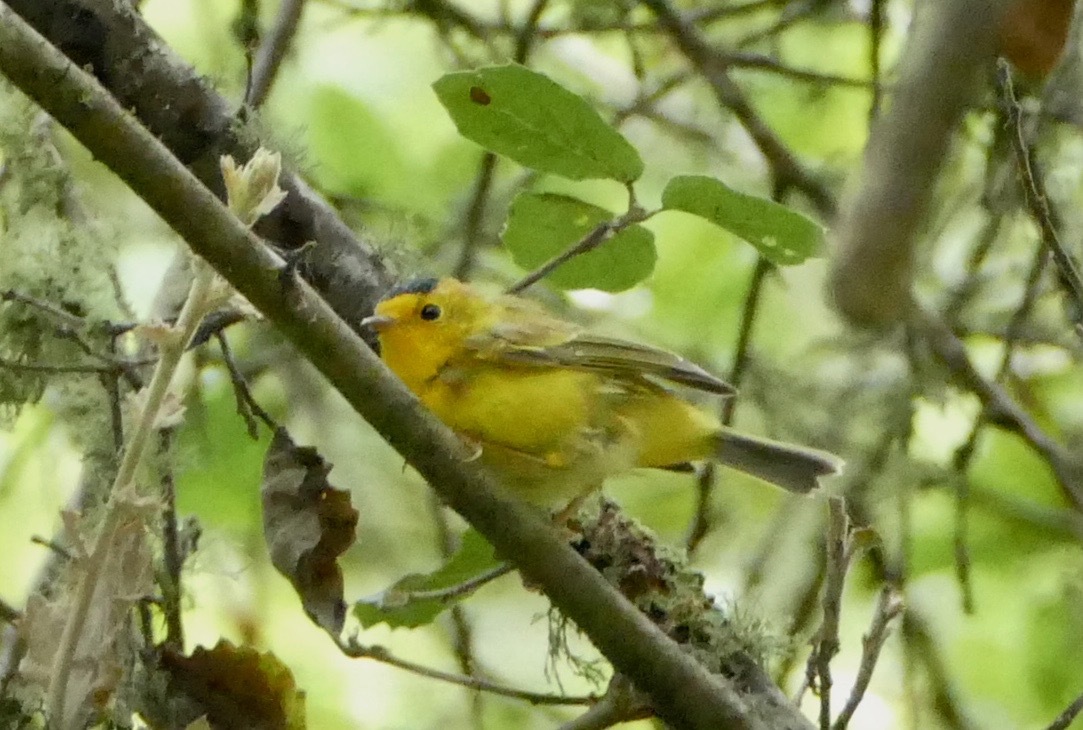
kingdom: Animalia
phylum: Chordata
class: Aves
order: Passeriformes
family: Parulidae
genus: Cardellina
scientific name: Cardellina pusilla
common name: Wilson's warbler
